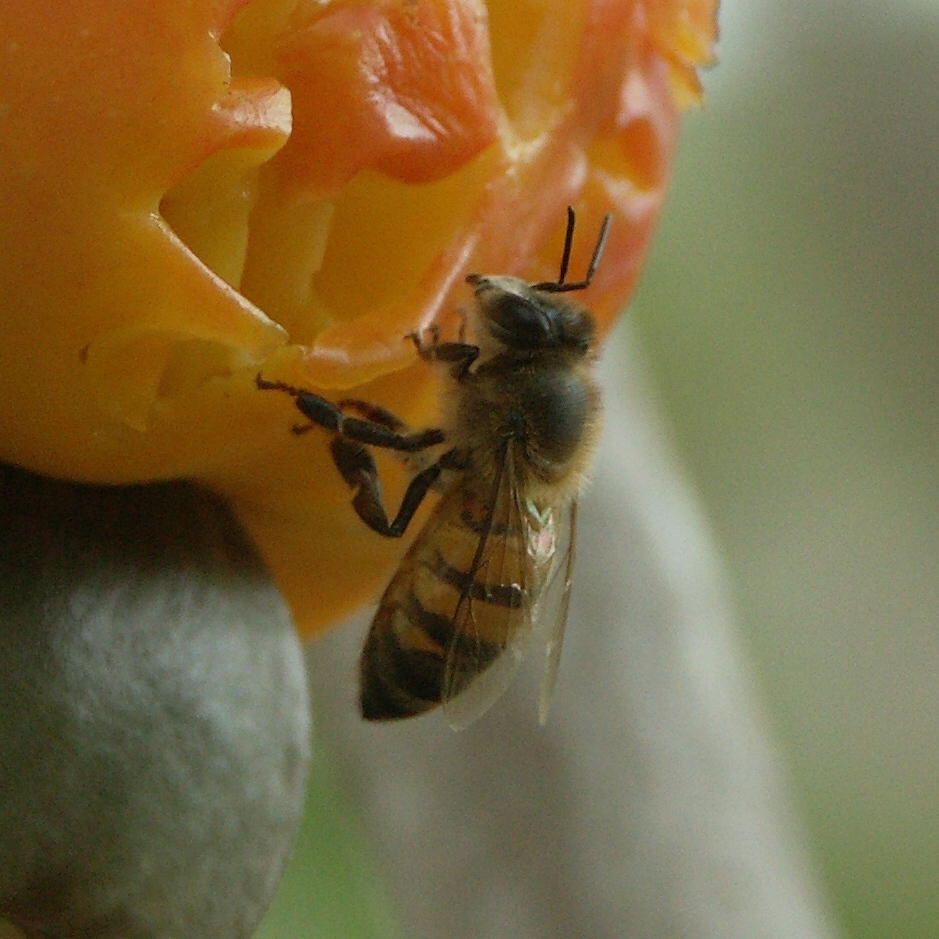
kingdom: Animalia
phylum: Arthropoda
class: Insecta
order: Hymenoptera
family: Apidae
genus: Apis
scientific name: Apis mellifera
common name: Honey bee
